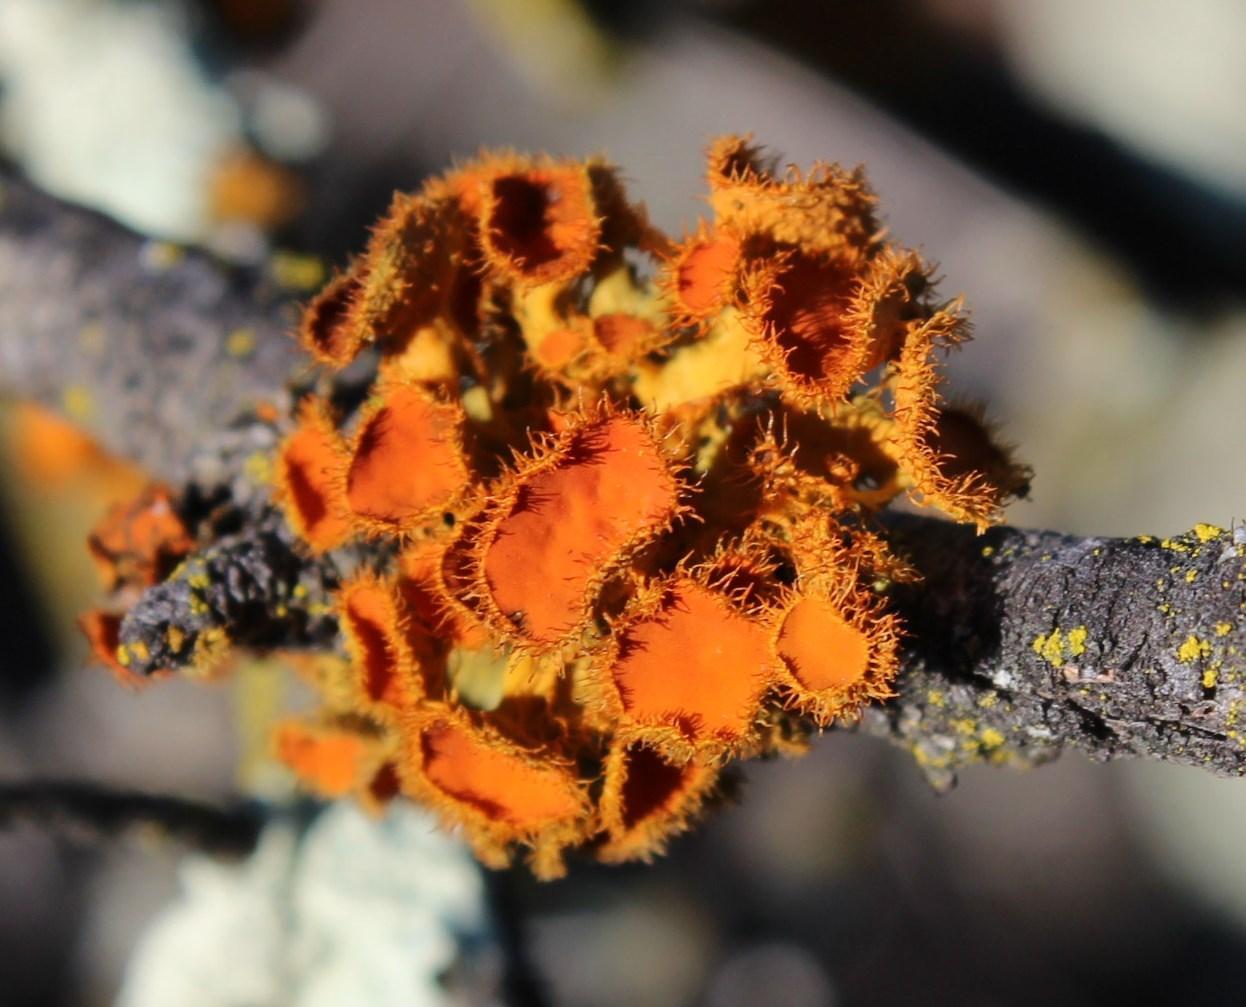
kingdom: Fungi
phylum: Ascomycota
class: Lecanoromycetes
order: Teloschistales
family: Teloschistaceae
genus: Niorma
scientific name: Niorma chrysophthalma
